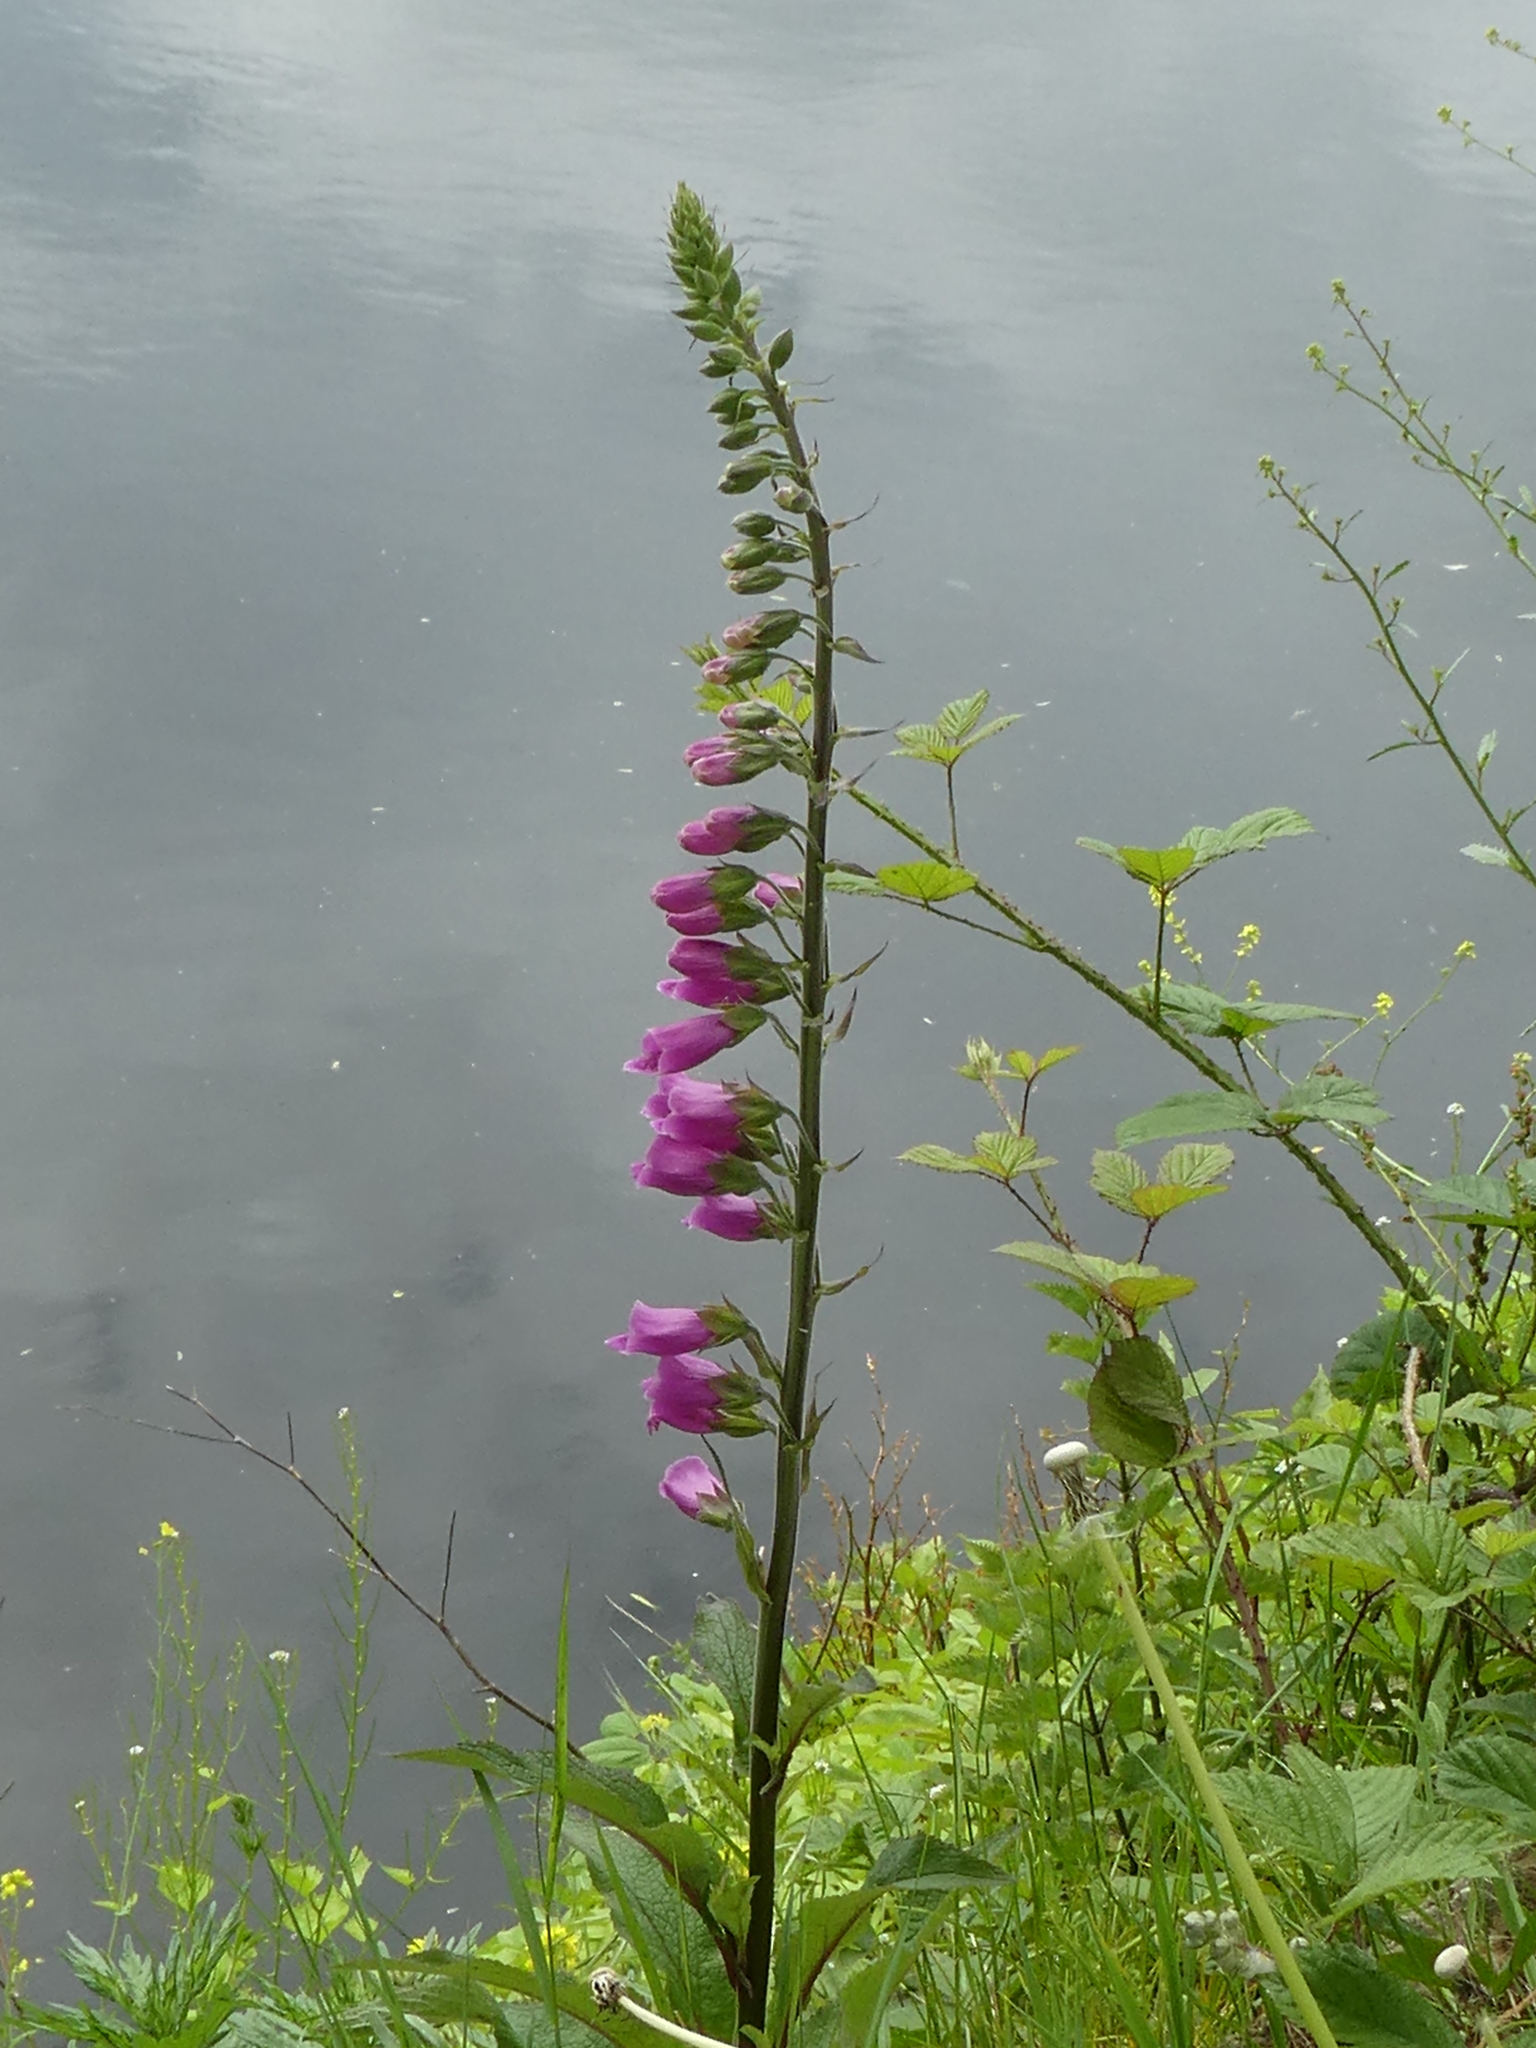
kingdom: Plantae
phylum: Tracheophyta
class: Magnoliopsida
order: Lamiales
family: Plantaginaceae
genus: Digitalis
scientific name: Digitalis purpurea
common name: Foxglove
